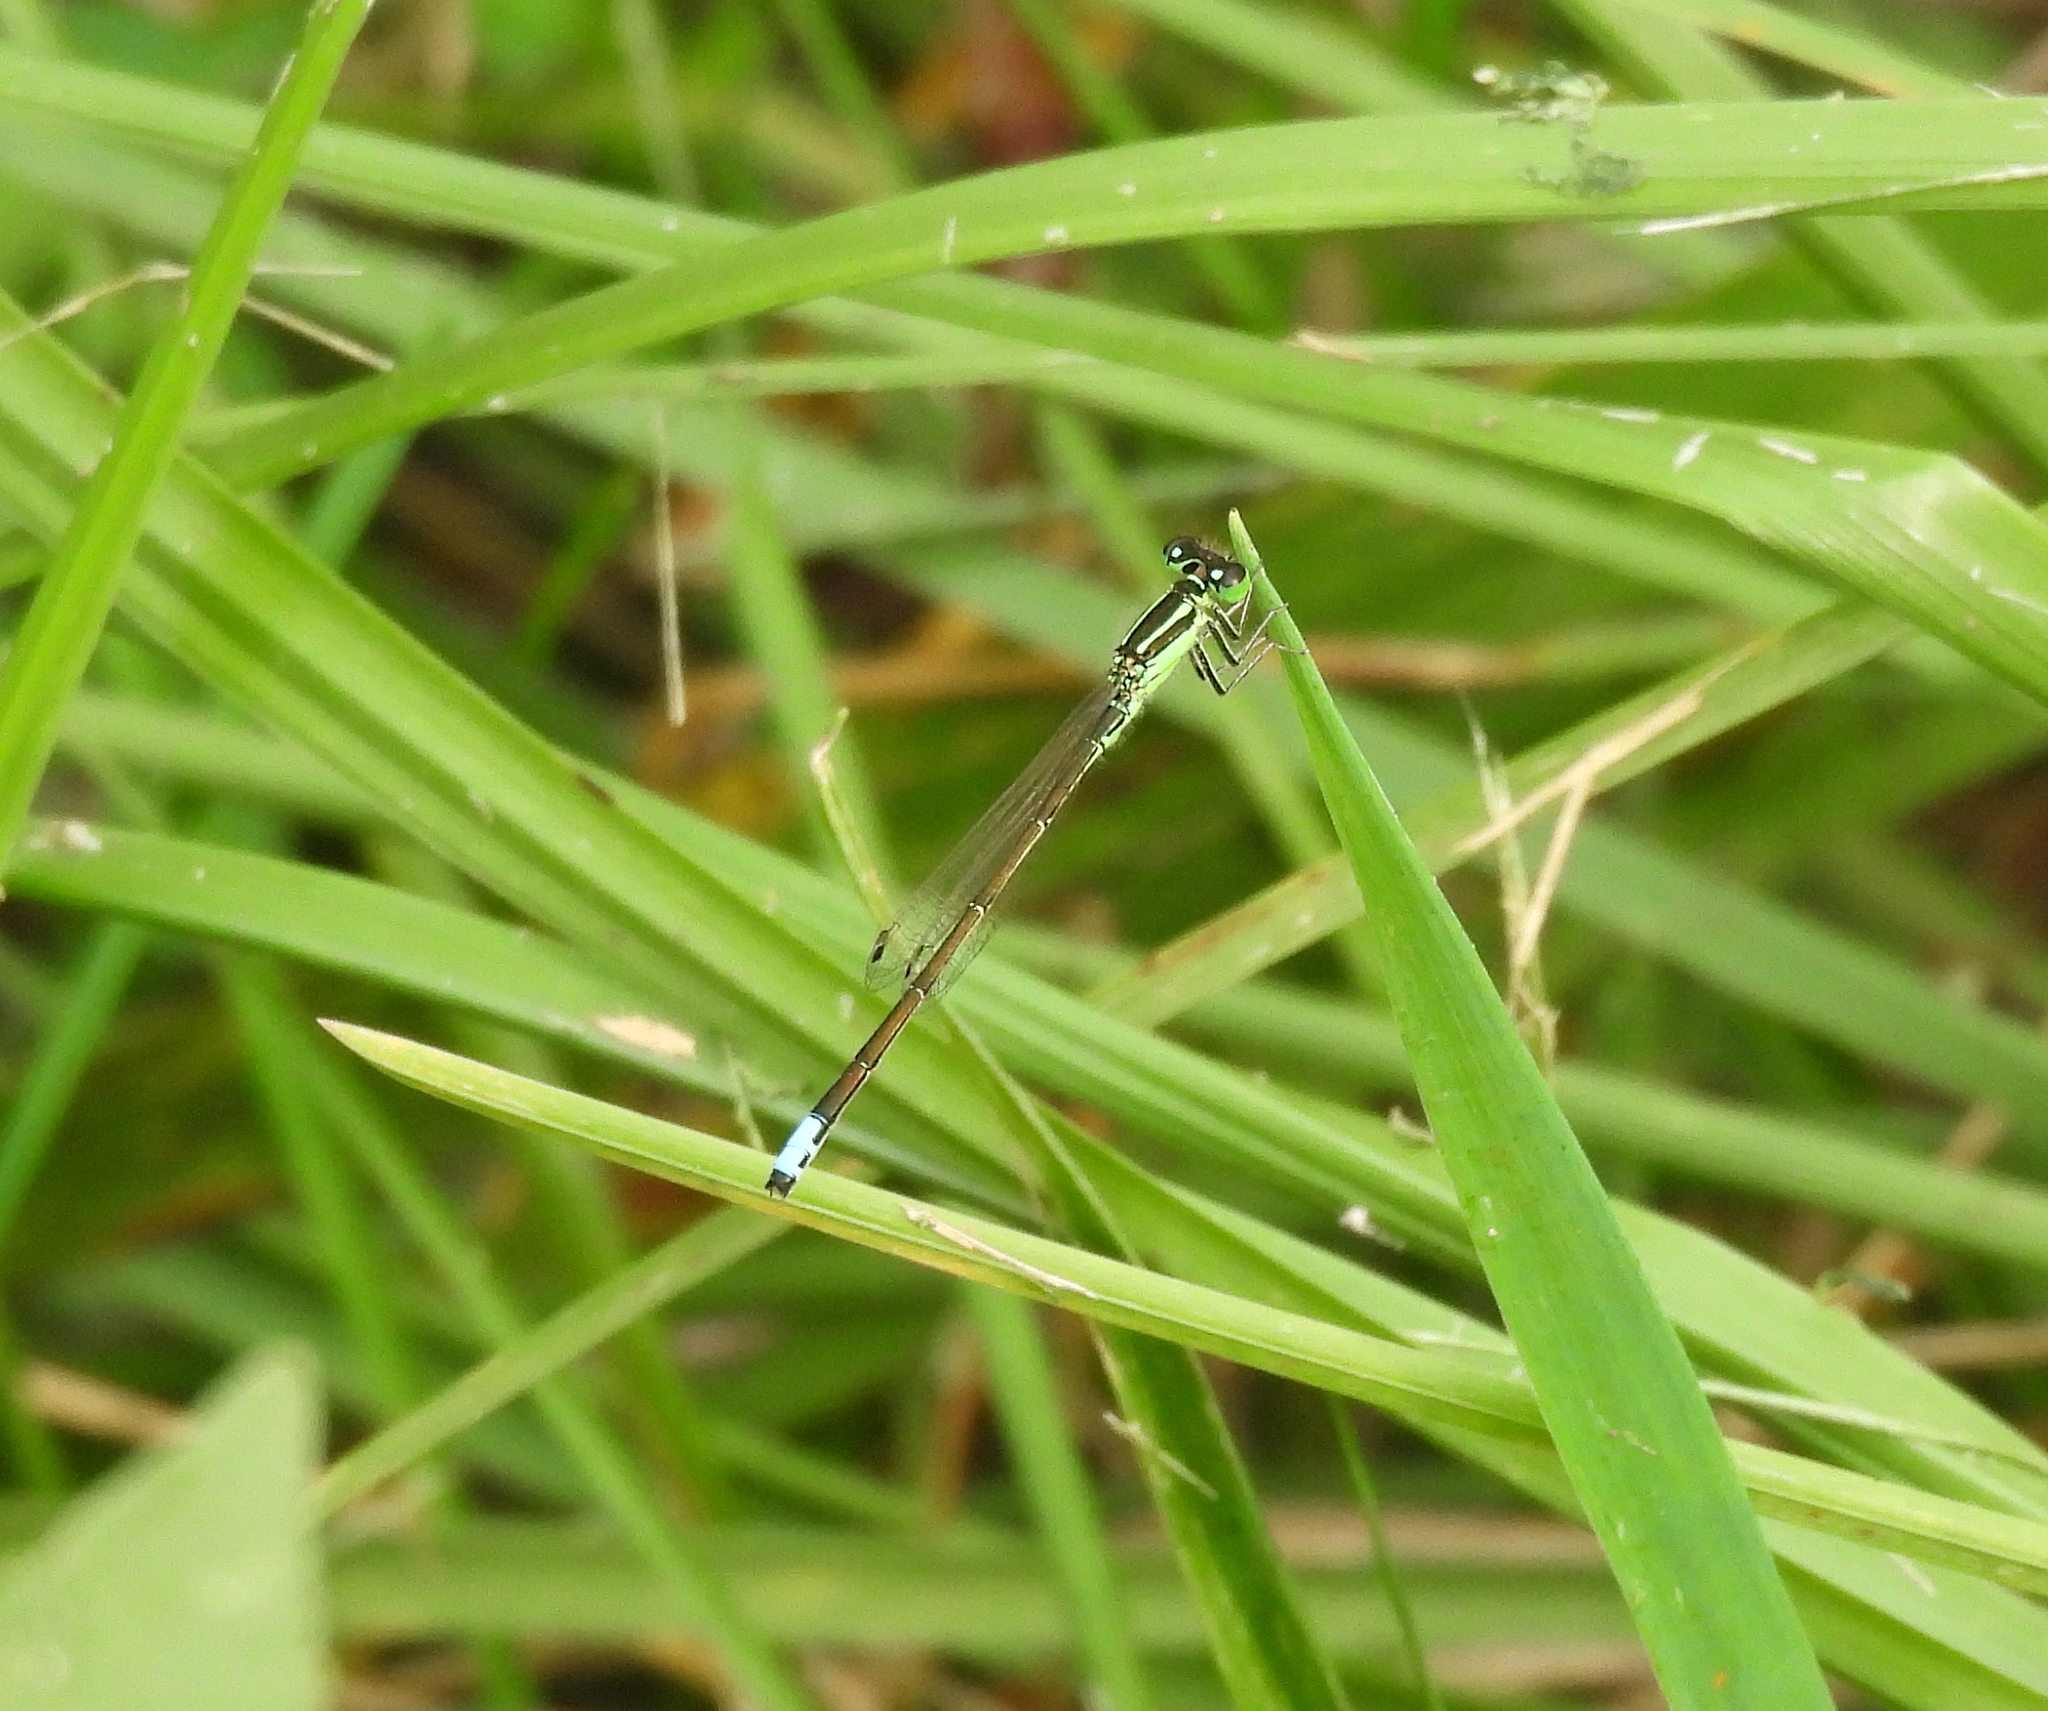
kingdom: Animalia
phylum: Arthropoda
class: Insecta
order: Odonata
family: Coenagrionidae
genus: Ischnura
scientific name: Ischnura verticalis
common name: Eastern forktail
